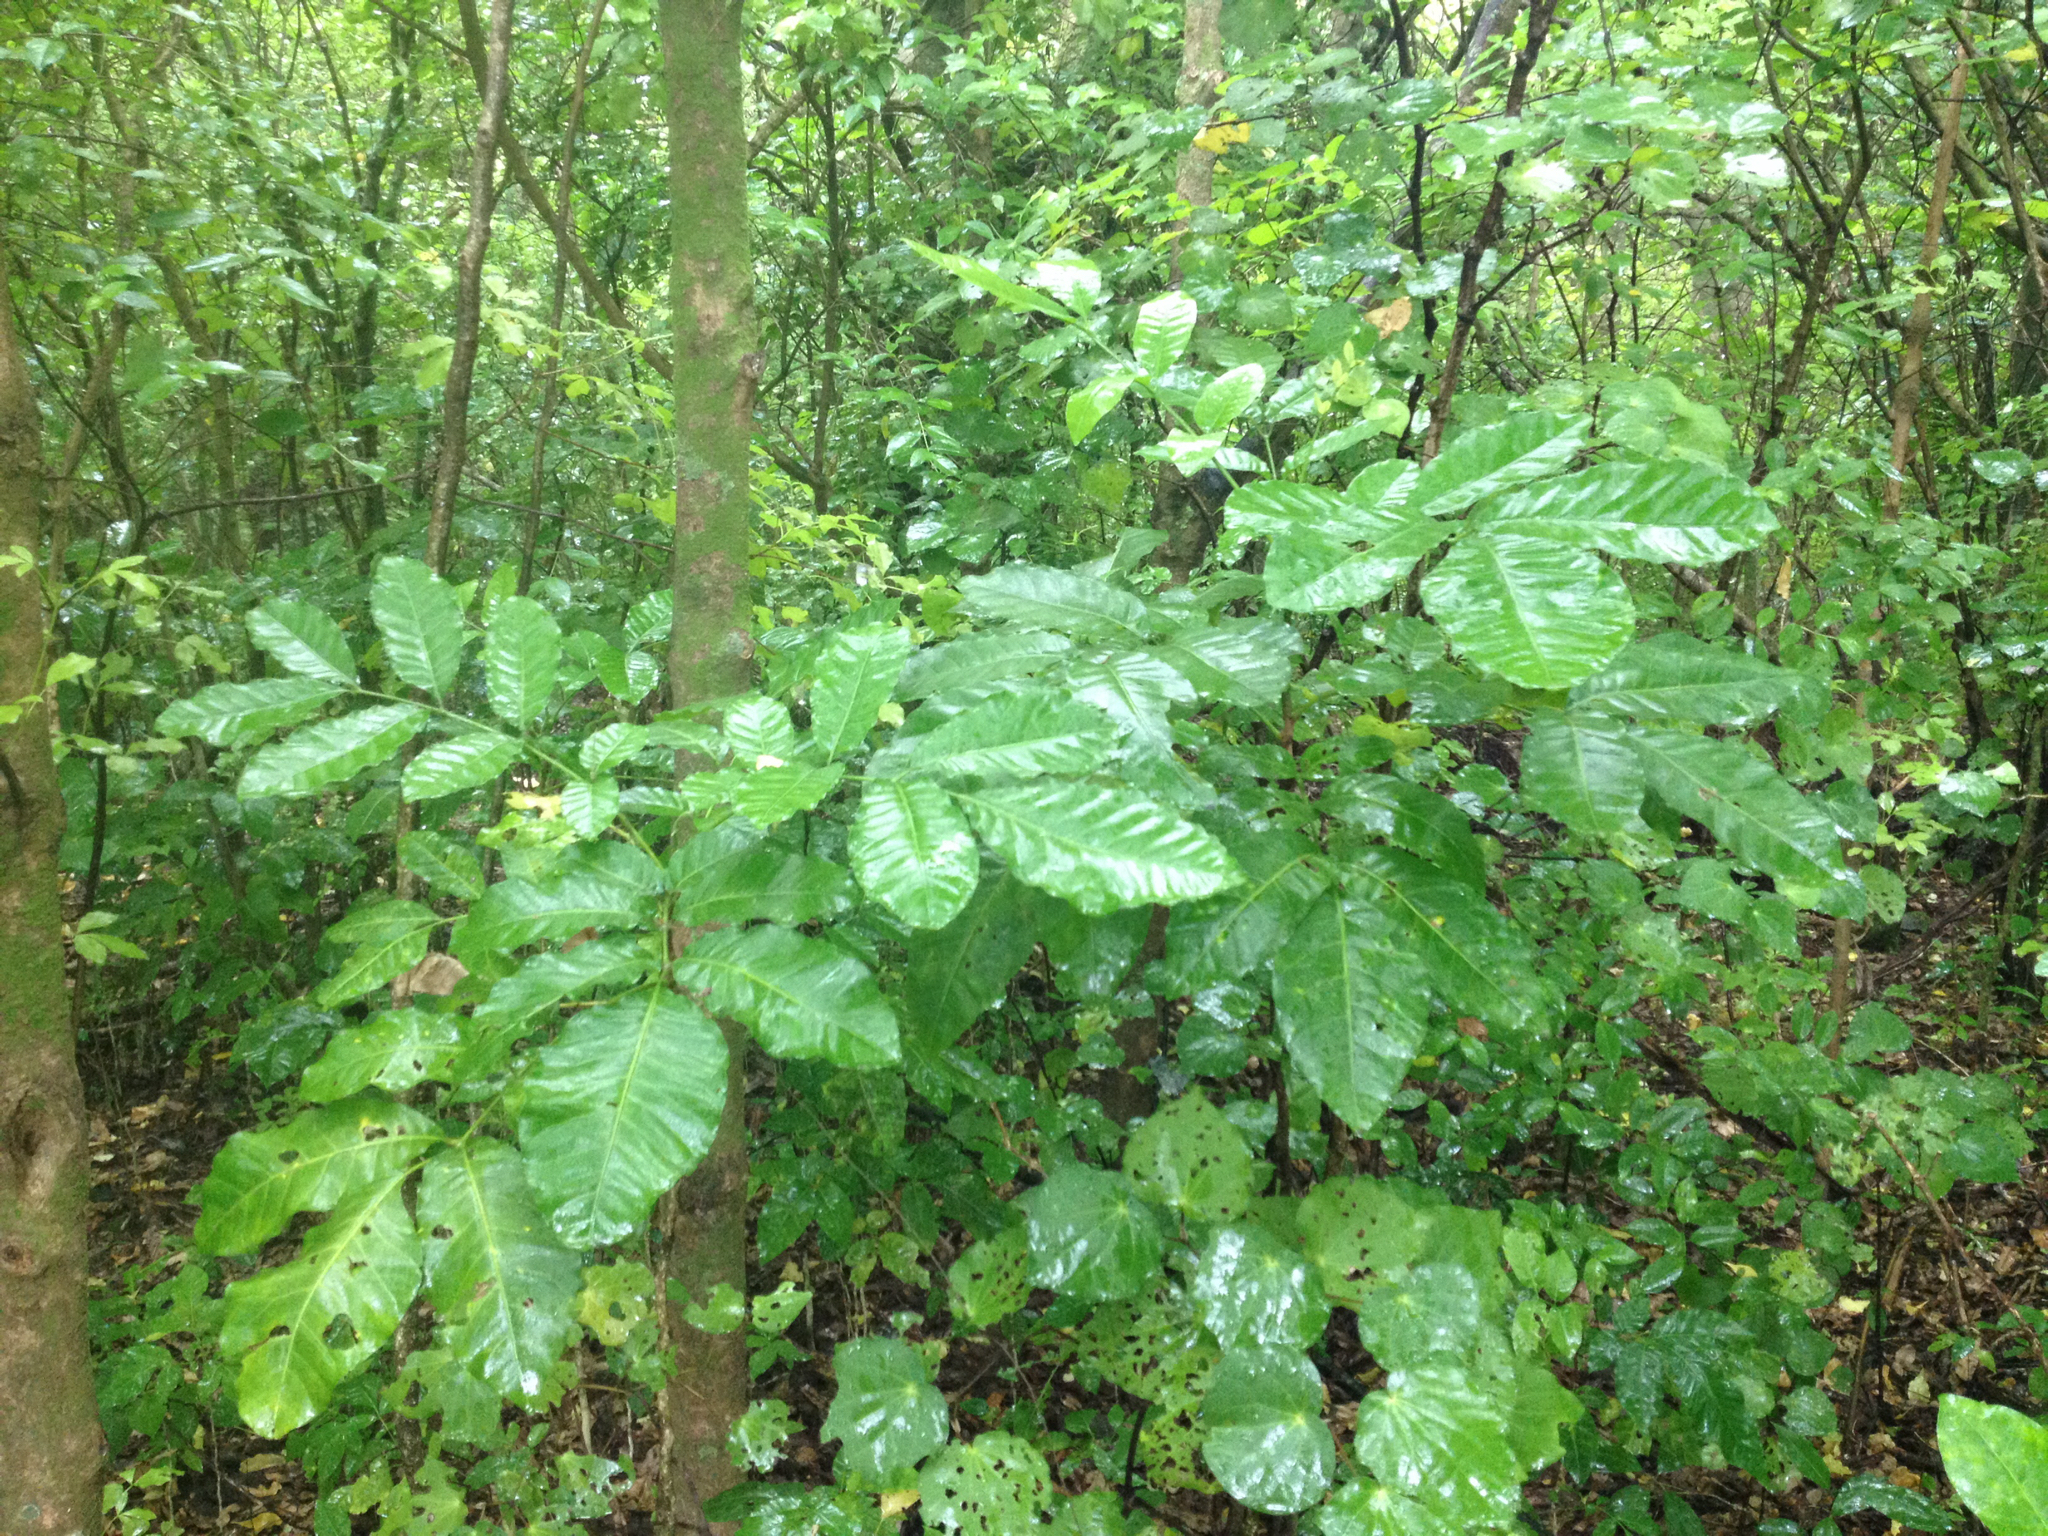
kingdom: Plantae
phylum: Tracheophyta
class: Magnoliopsida
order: Sapindales
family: Meliaceae
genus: Didymocheton
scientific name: Didymocheton spectabilis
